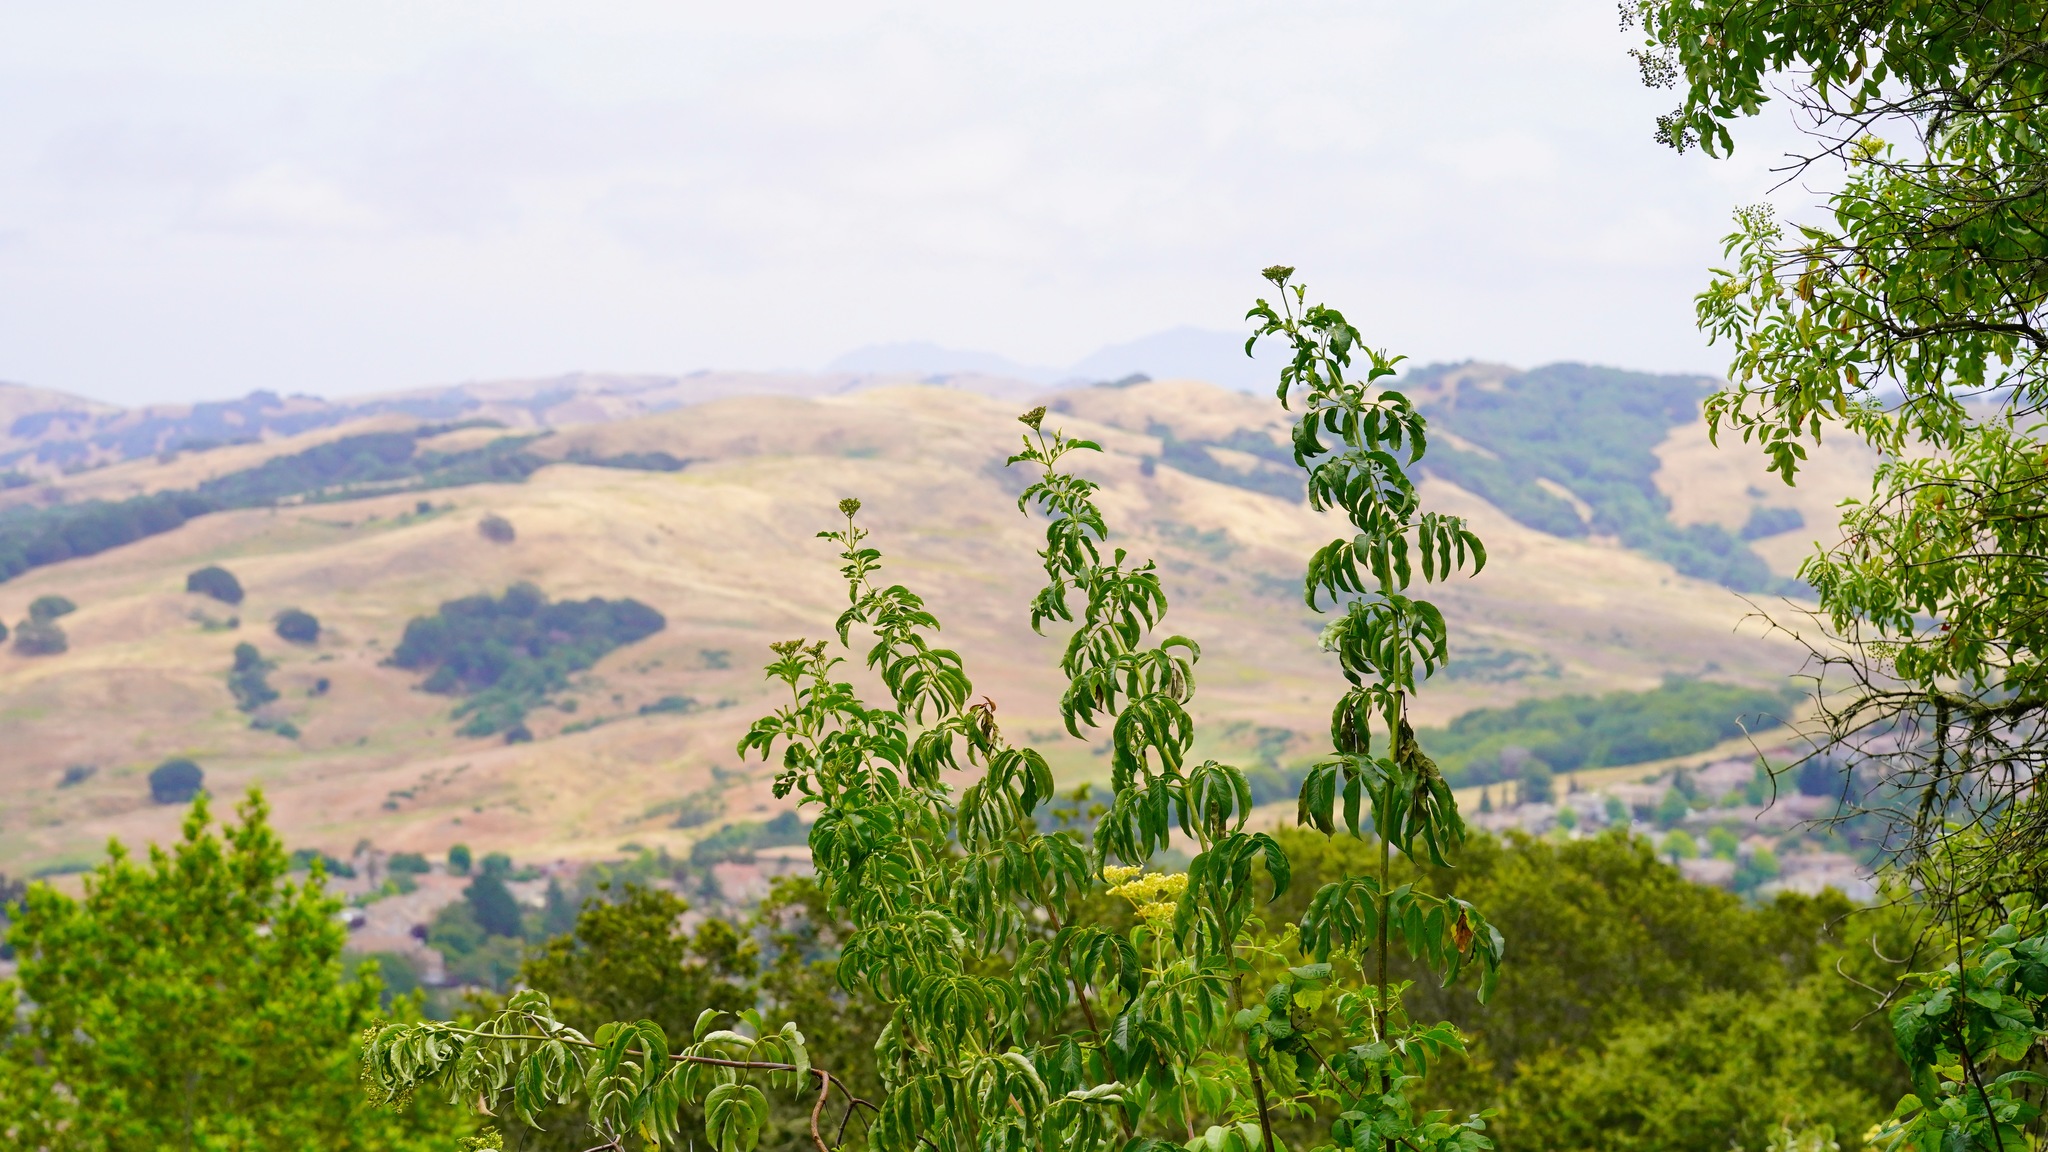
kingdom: Plantae
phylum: Tracheophyta
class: Magnoliopsida
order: Dipsacales
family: Viburnaceae
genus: Sambucus
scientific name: Sambucus cerulea
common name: Blue elder
